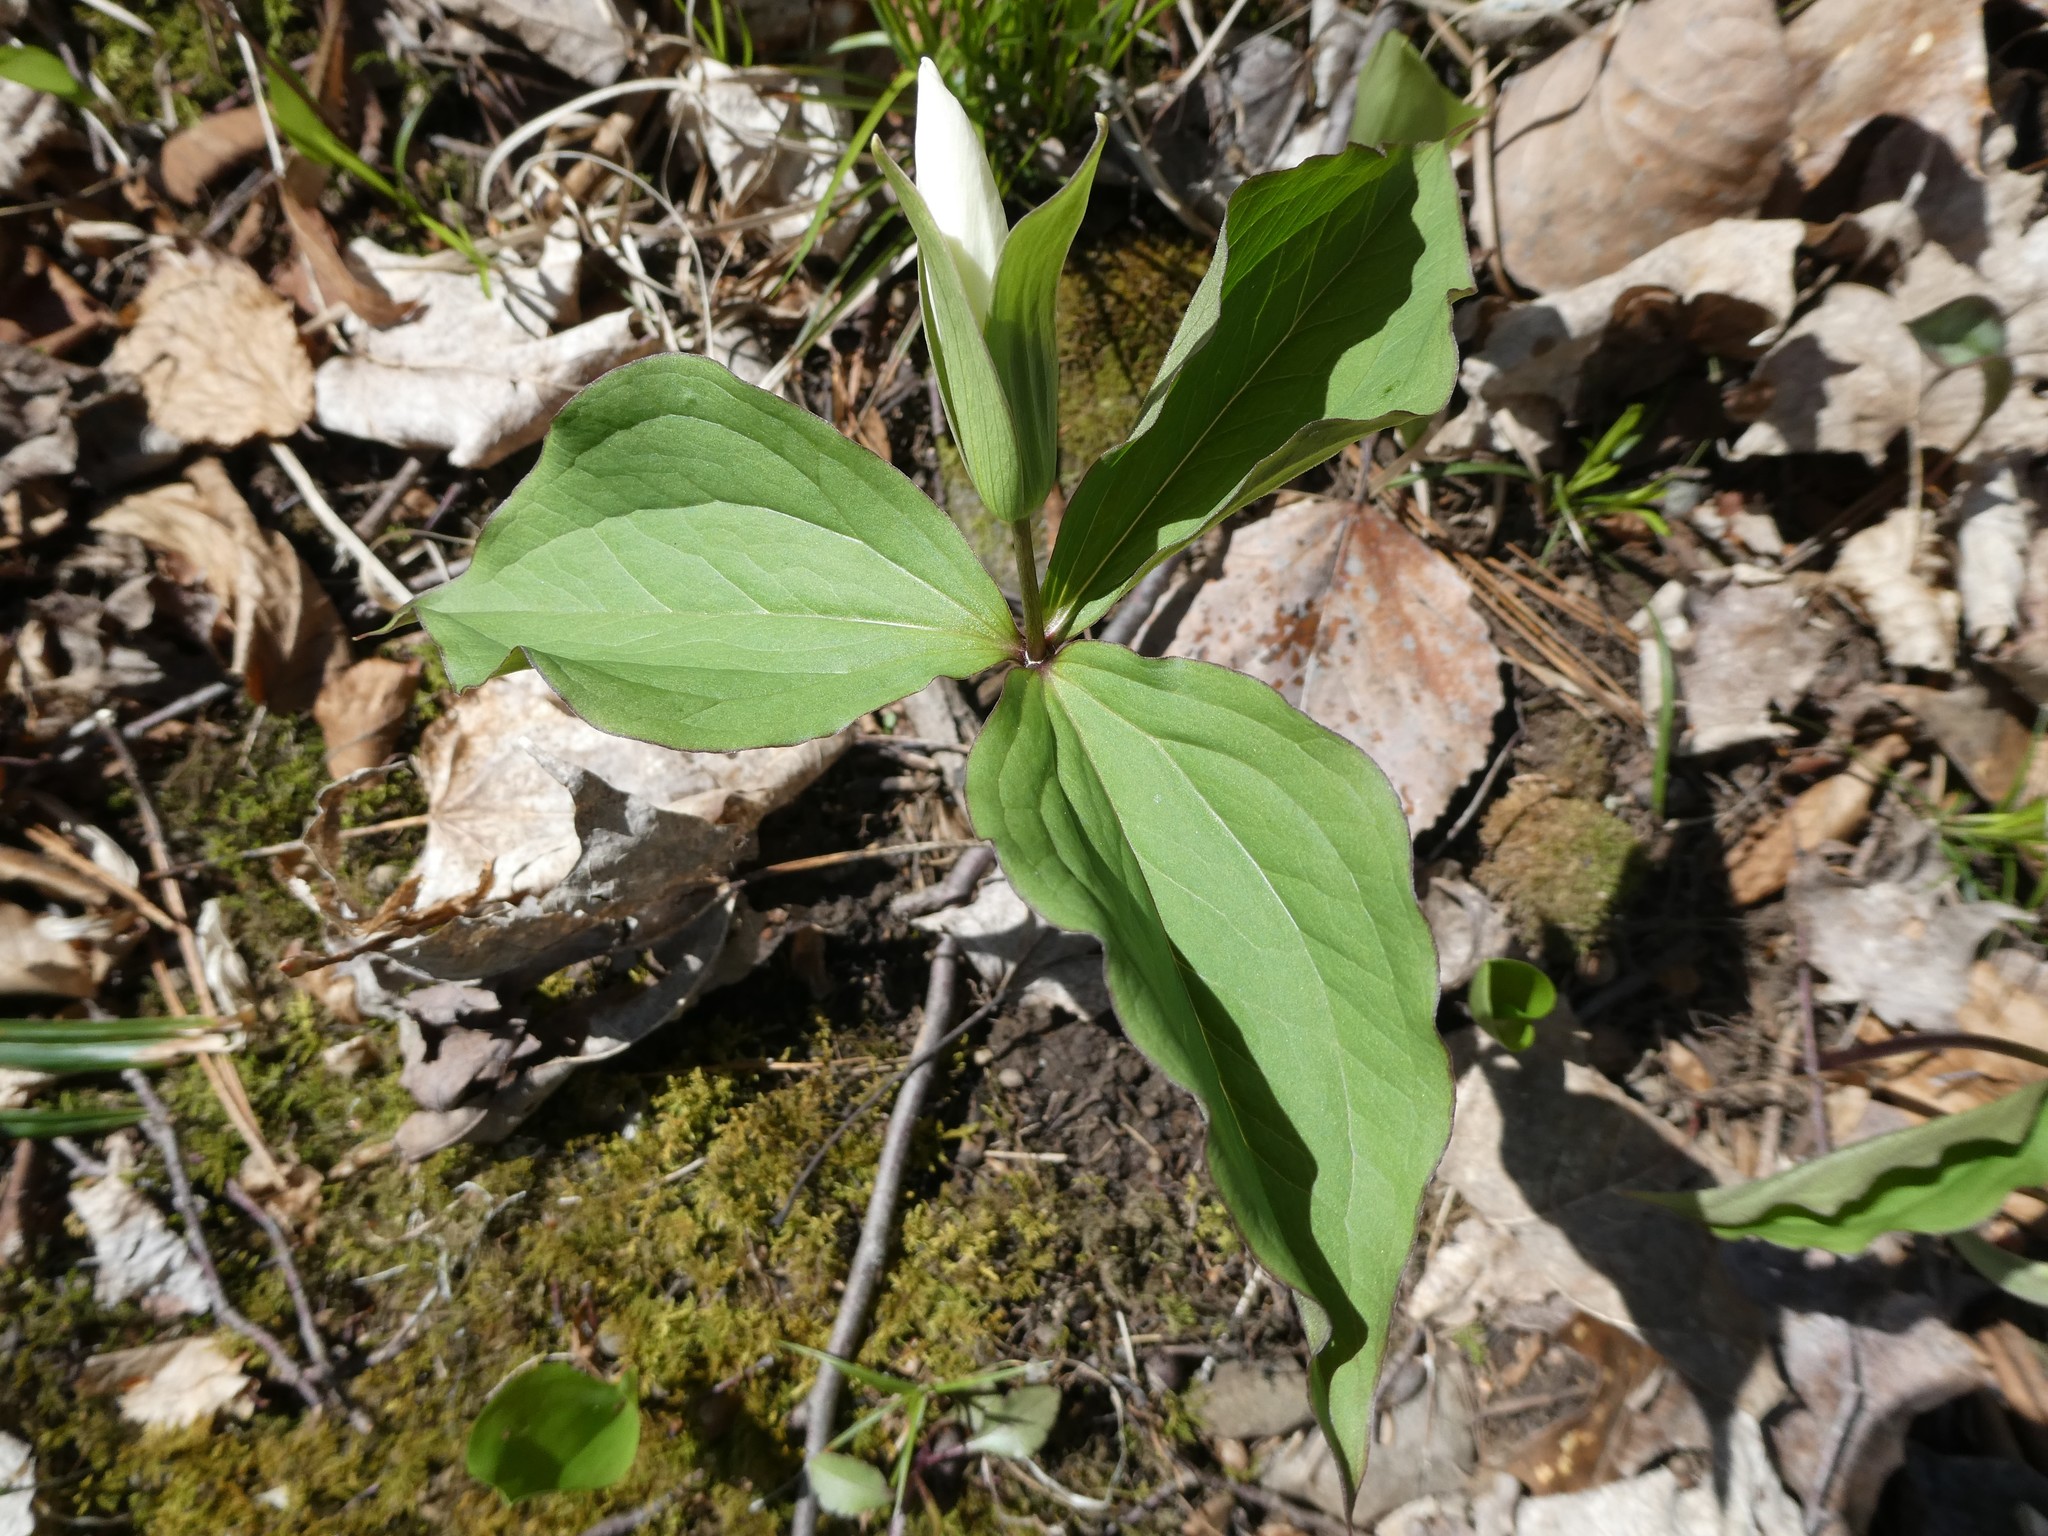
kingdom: Plantae
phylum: Tracheophyta
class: Liliopsida
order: Liliales
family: Melanthiaceae
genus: Trillium
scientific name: Trillium grandiflorum
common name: Great white trillium
